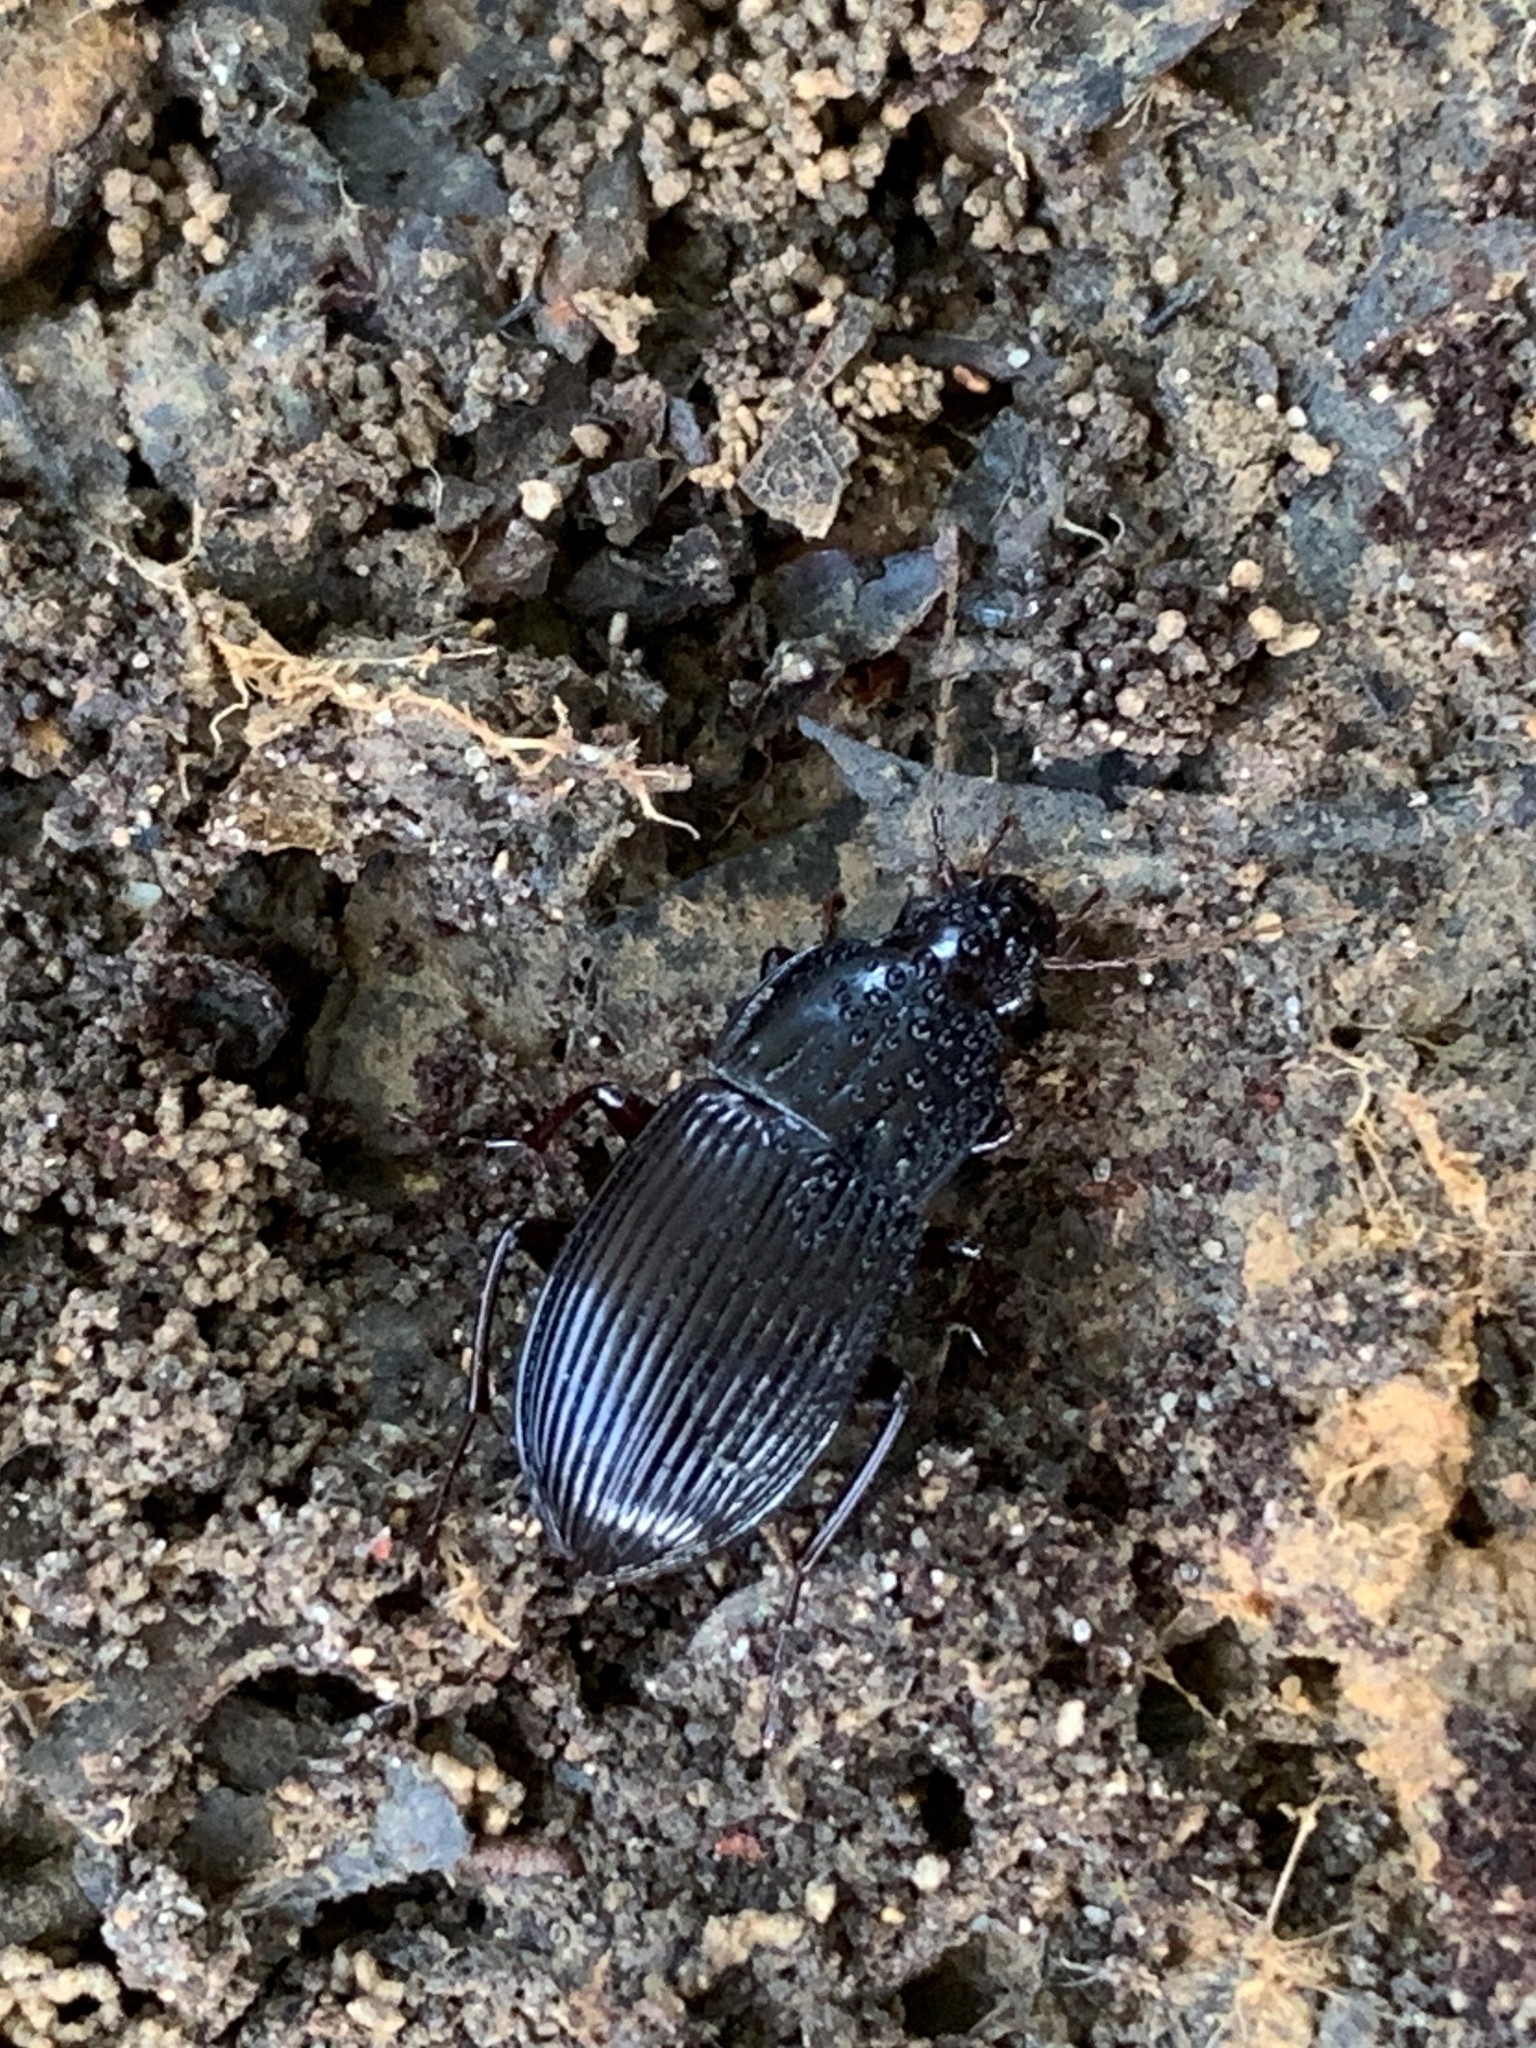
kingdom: Animalia
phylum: Arthropoda
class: Insecta
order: Coleoptera
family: Carabidae
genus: Abacidus
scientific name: Abacidus
